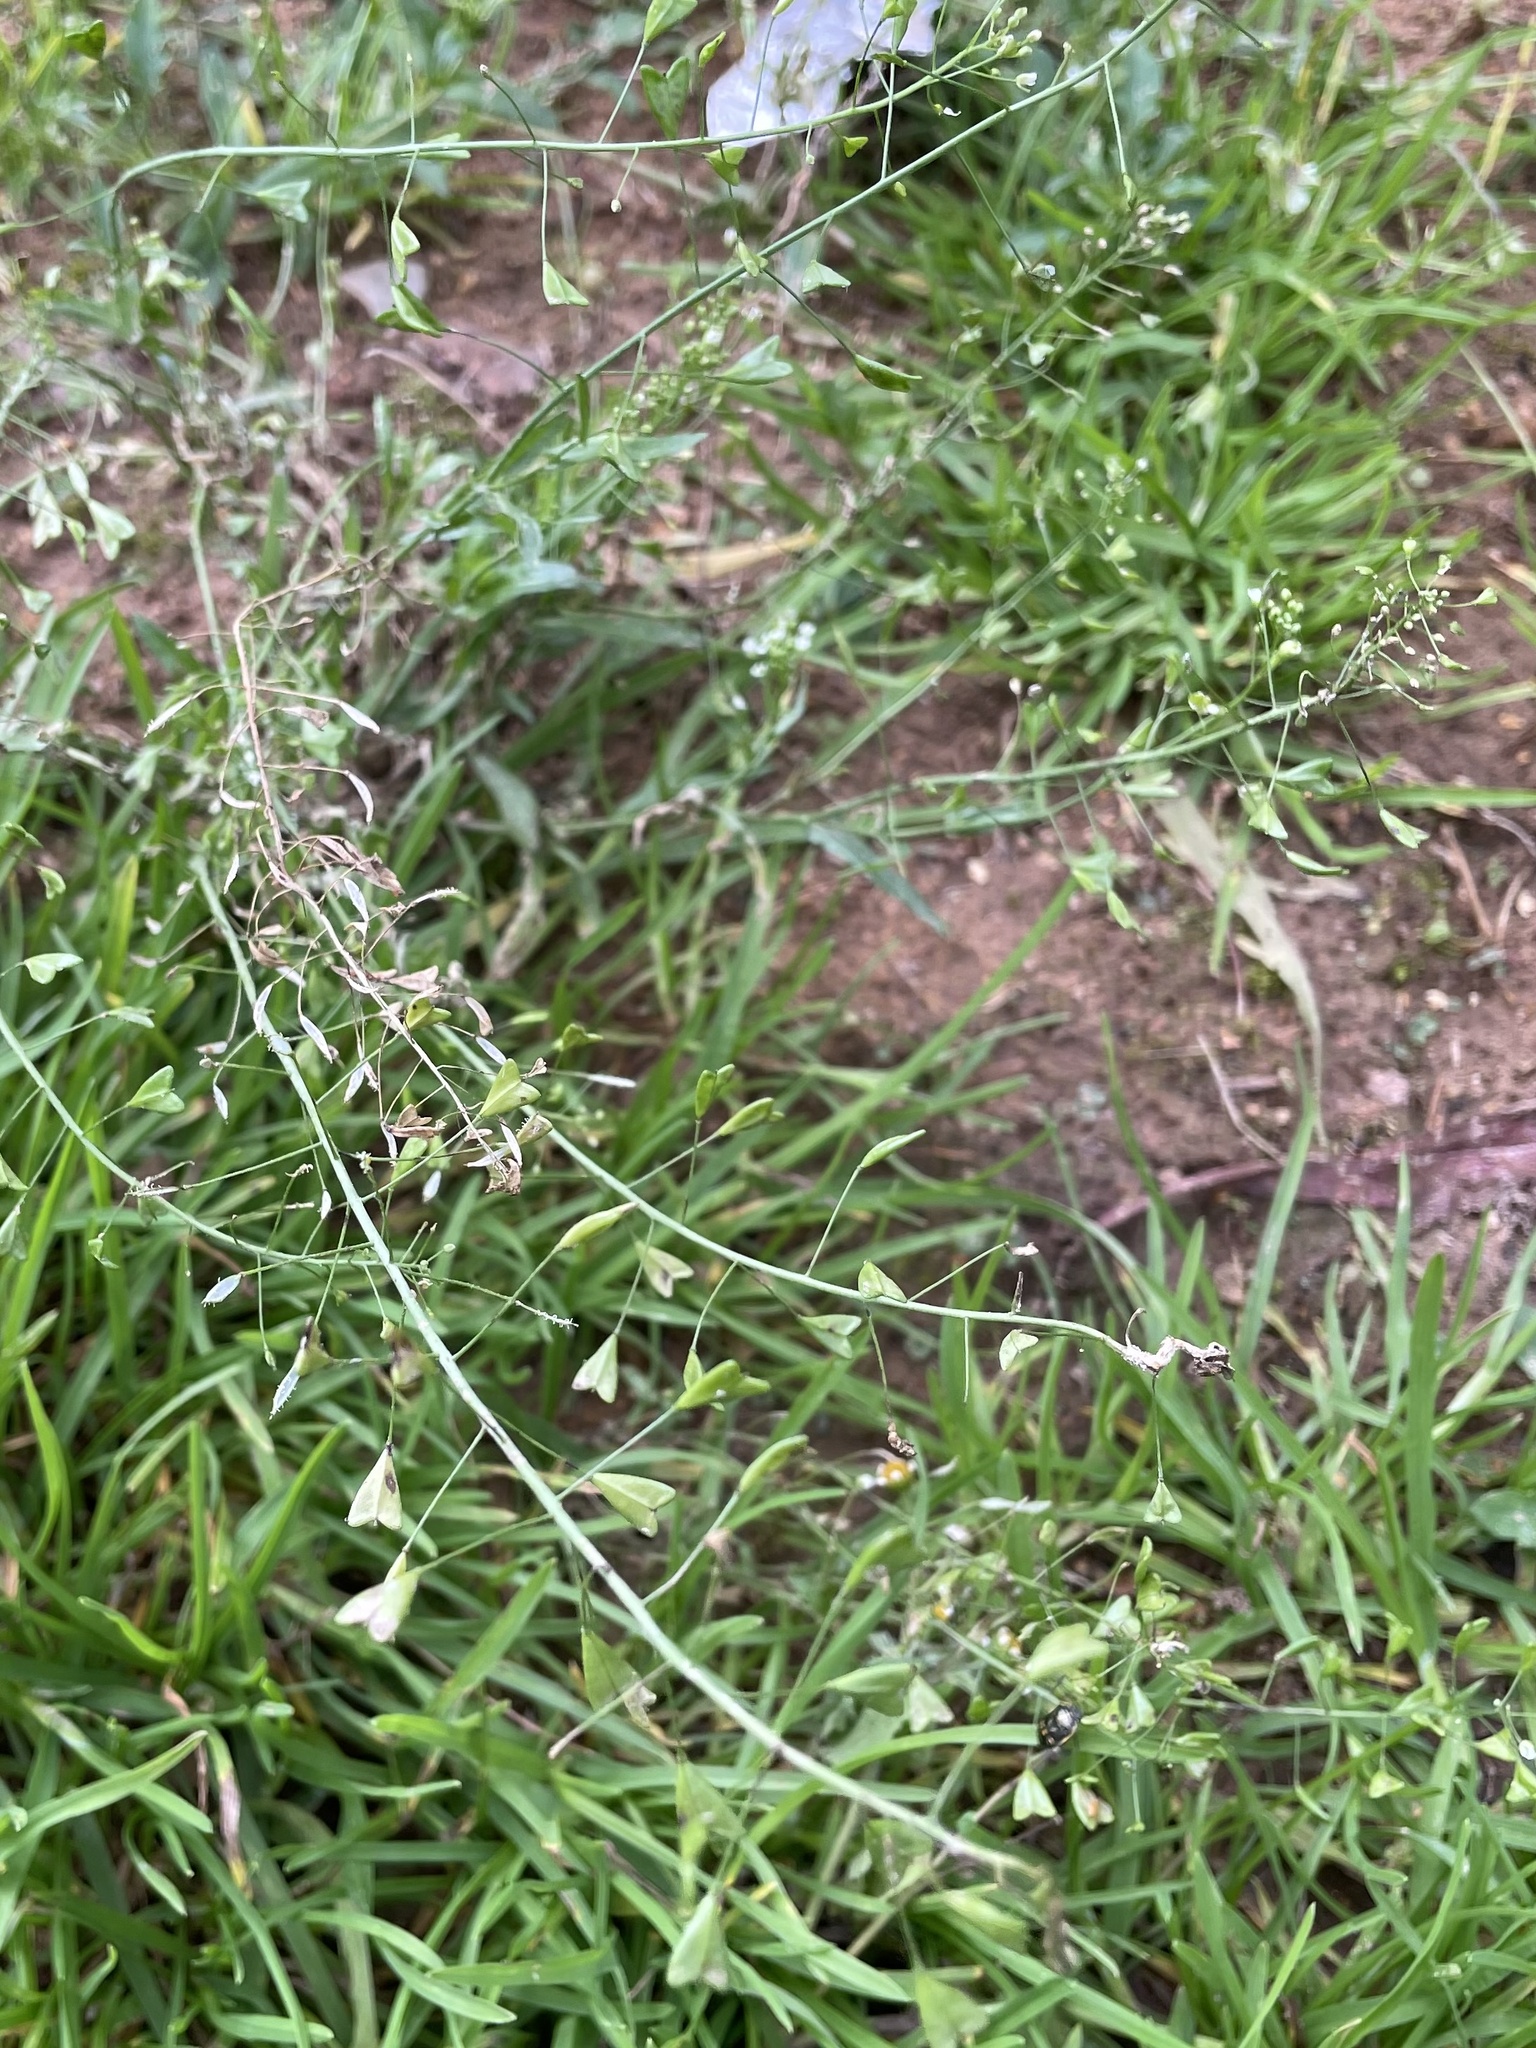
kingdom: Plantae
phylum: Tracheophyta
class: Magnoliopsida
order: Brassicales
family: Brassicaceae
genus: Capsella
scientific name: Capsella bursa-pastoris
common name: Shepherd's purse
